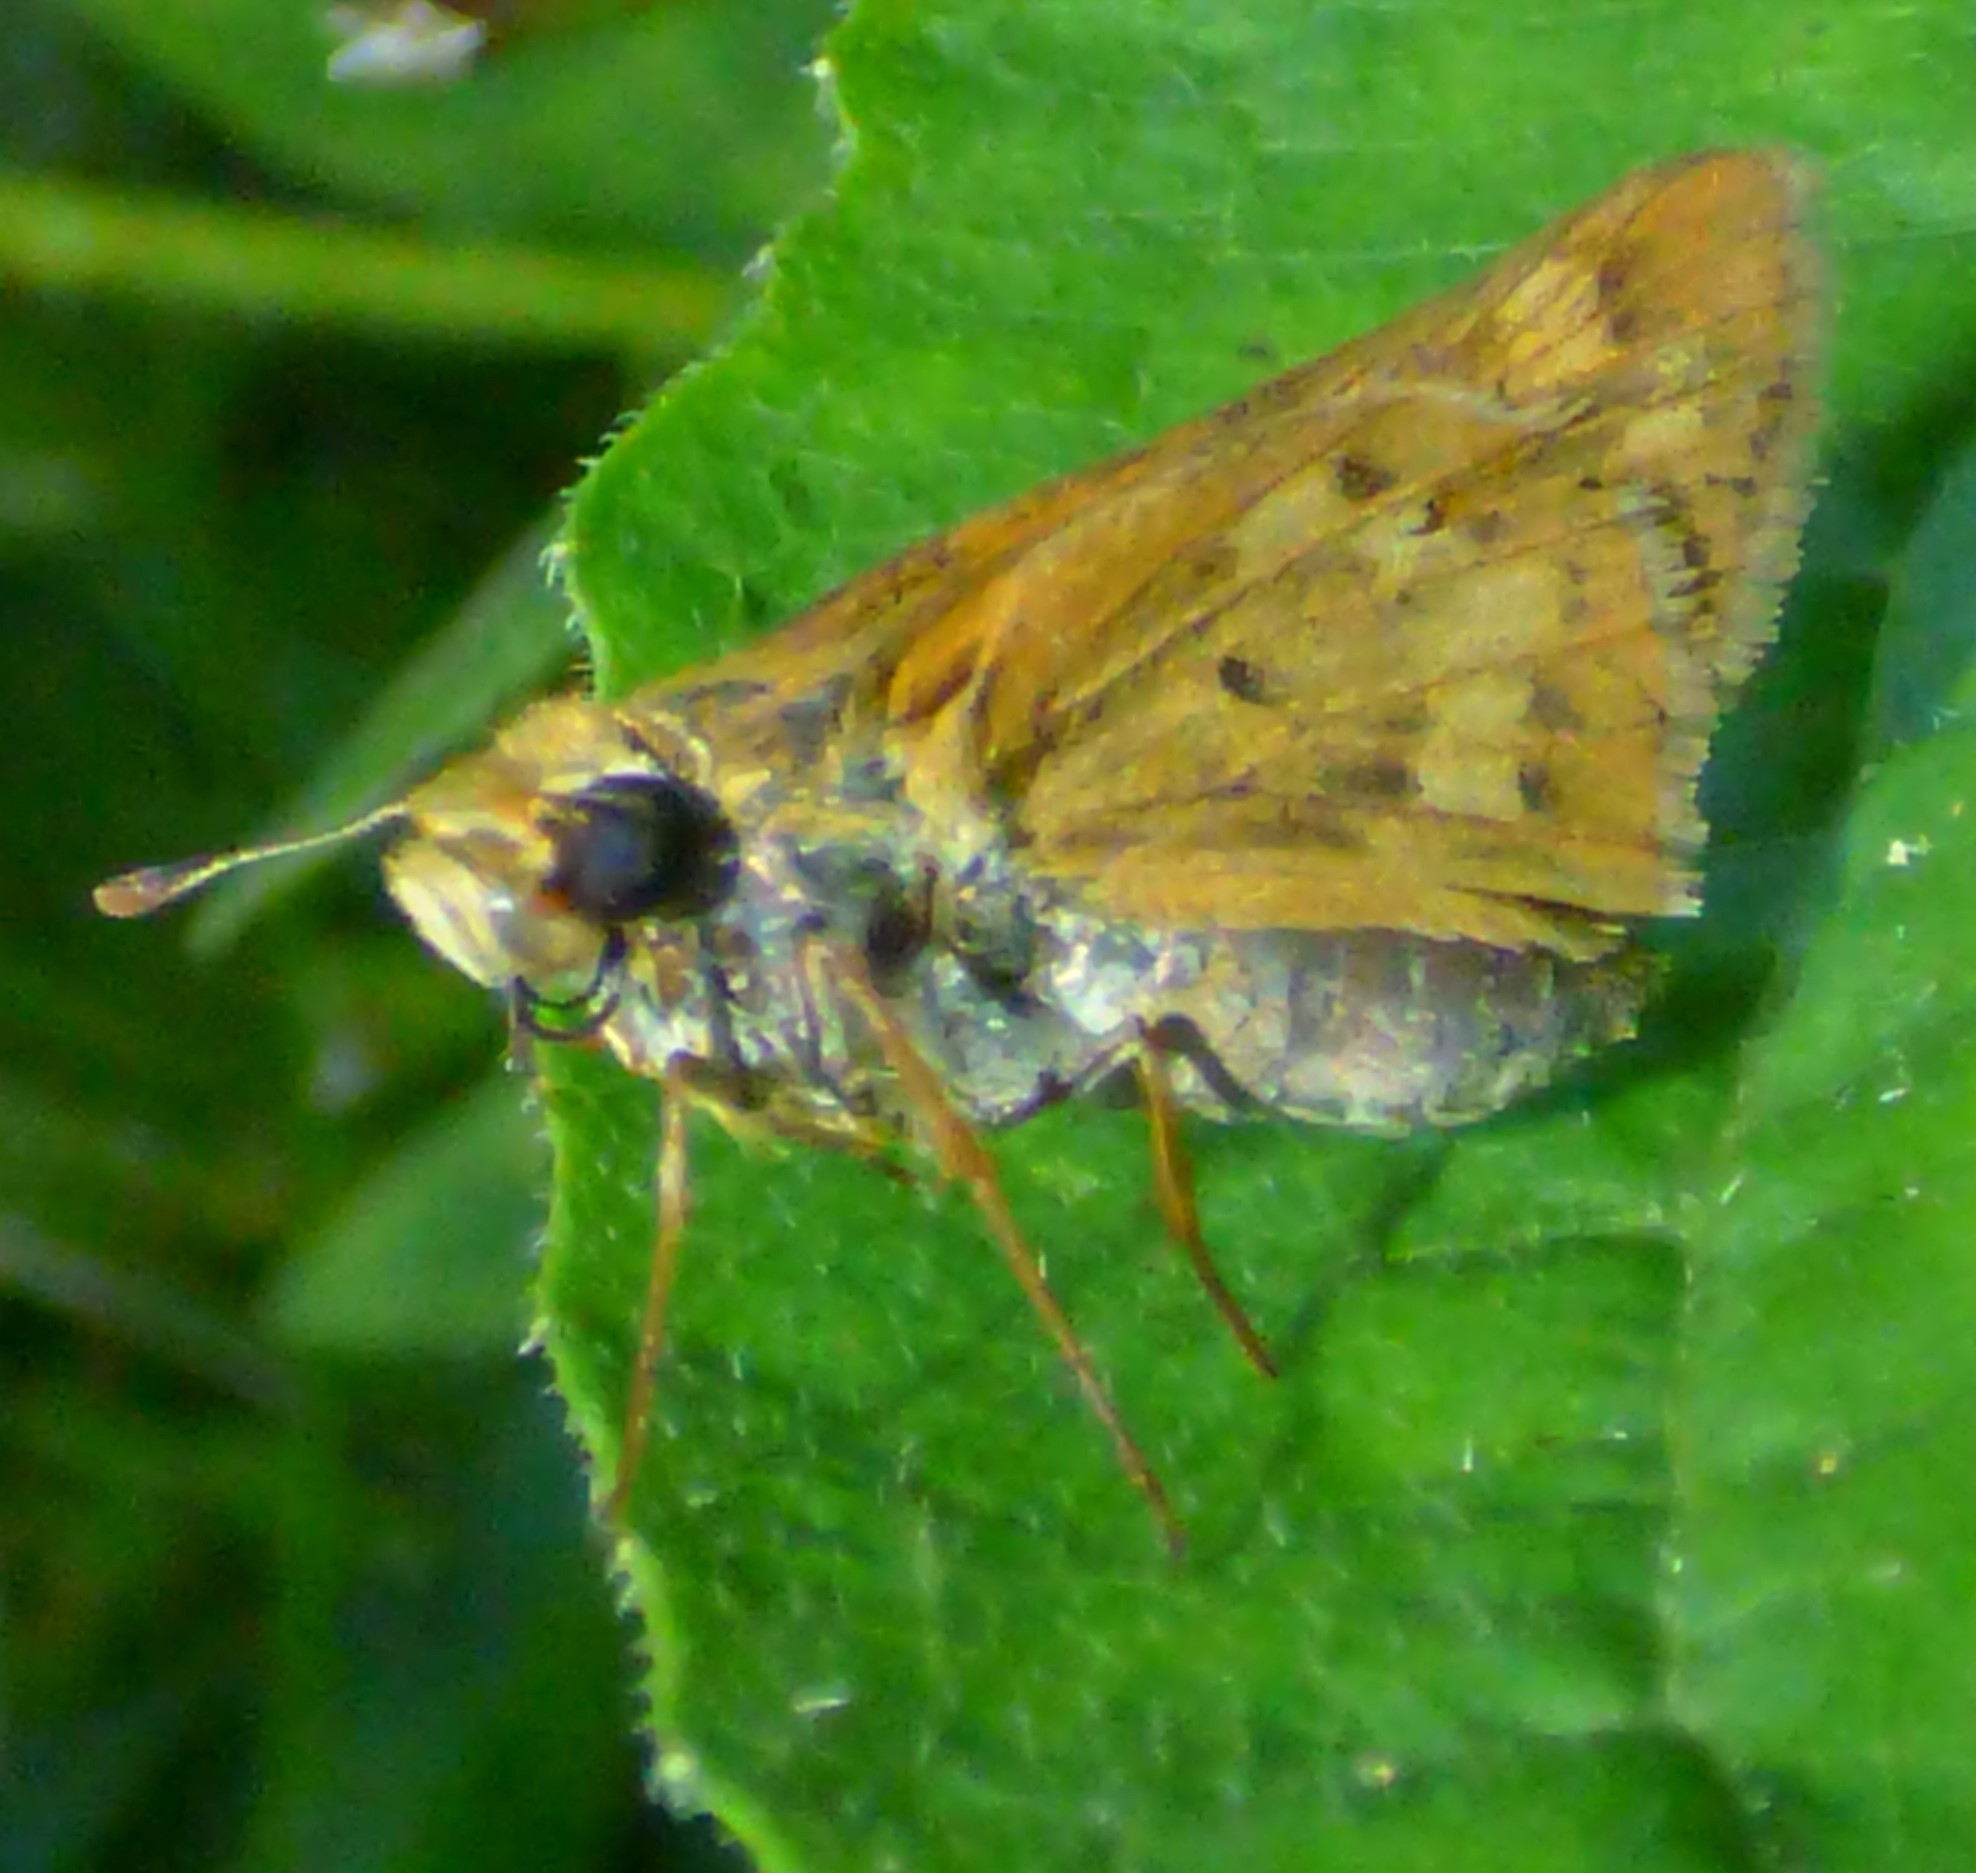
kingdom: Animalia
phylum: Arthropoda
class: Insecta
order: Lepidoptera
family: Hesperiidae
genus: Hylephila
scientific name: Hylephila phyleus
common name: Fiery skipper
